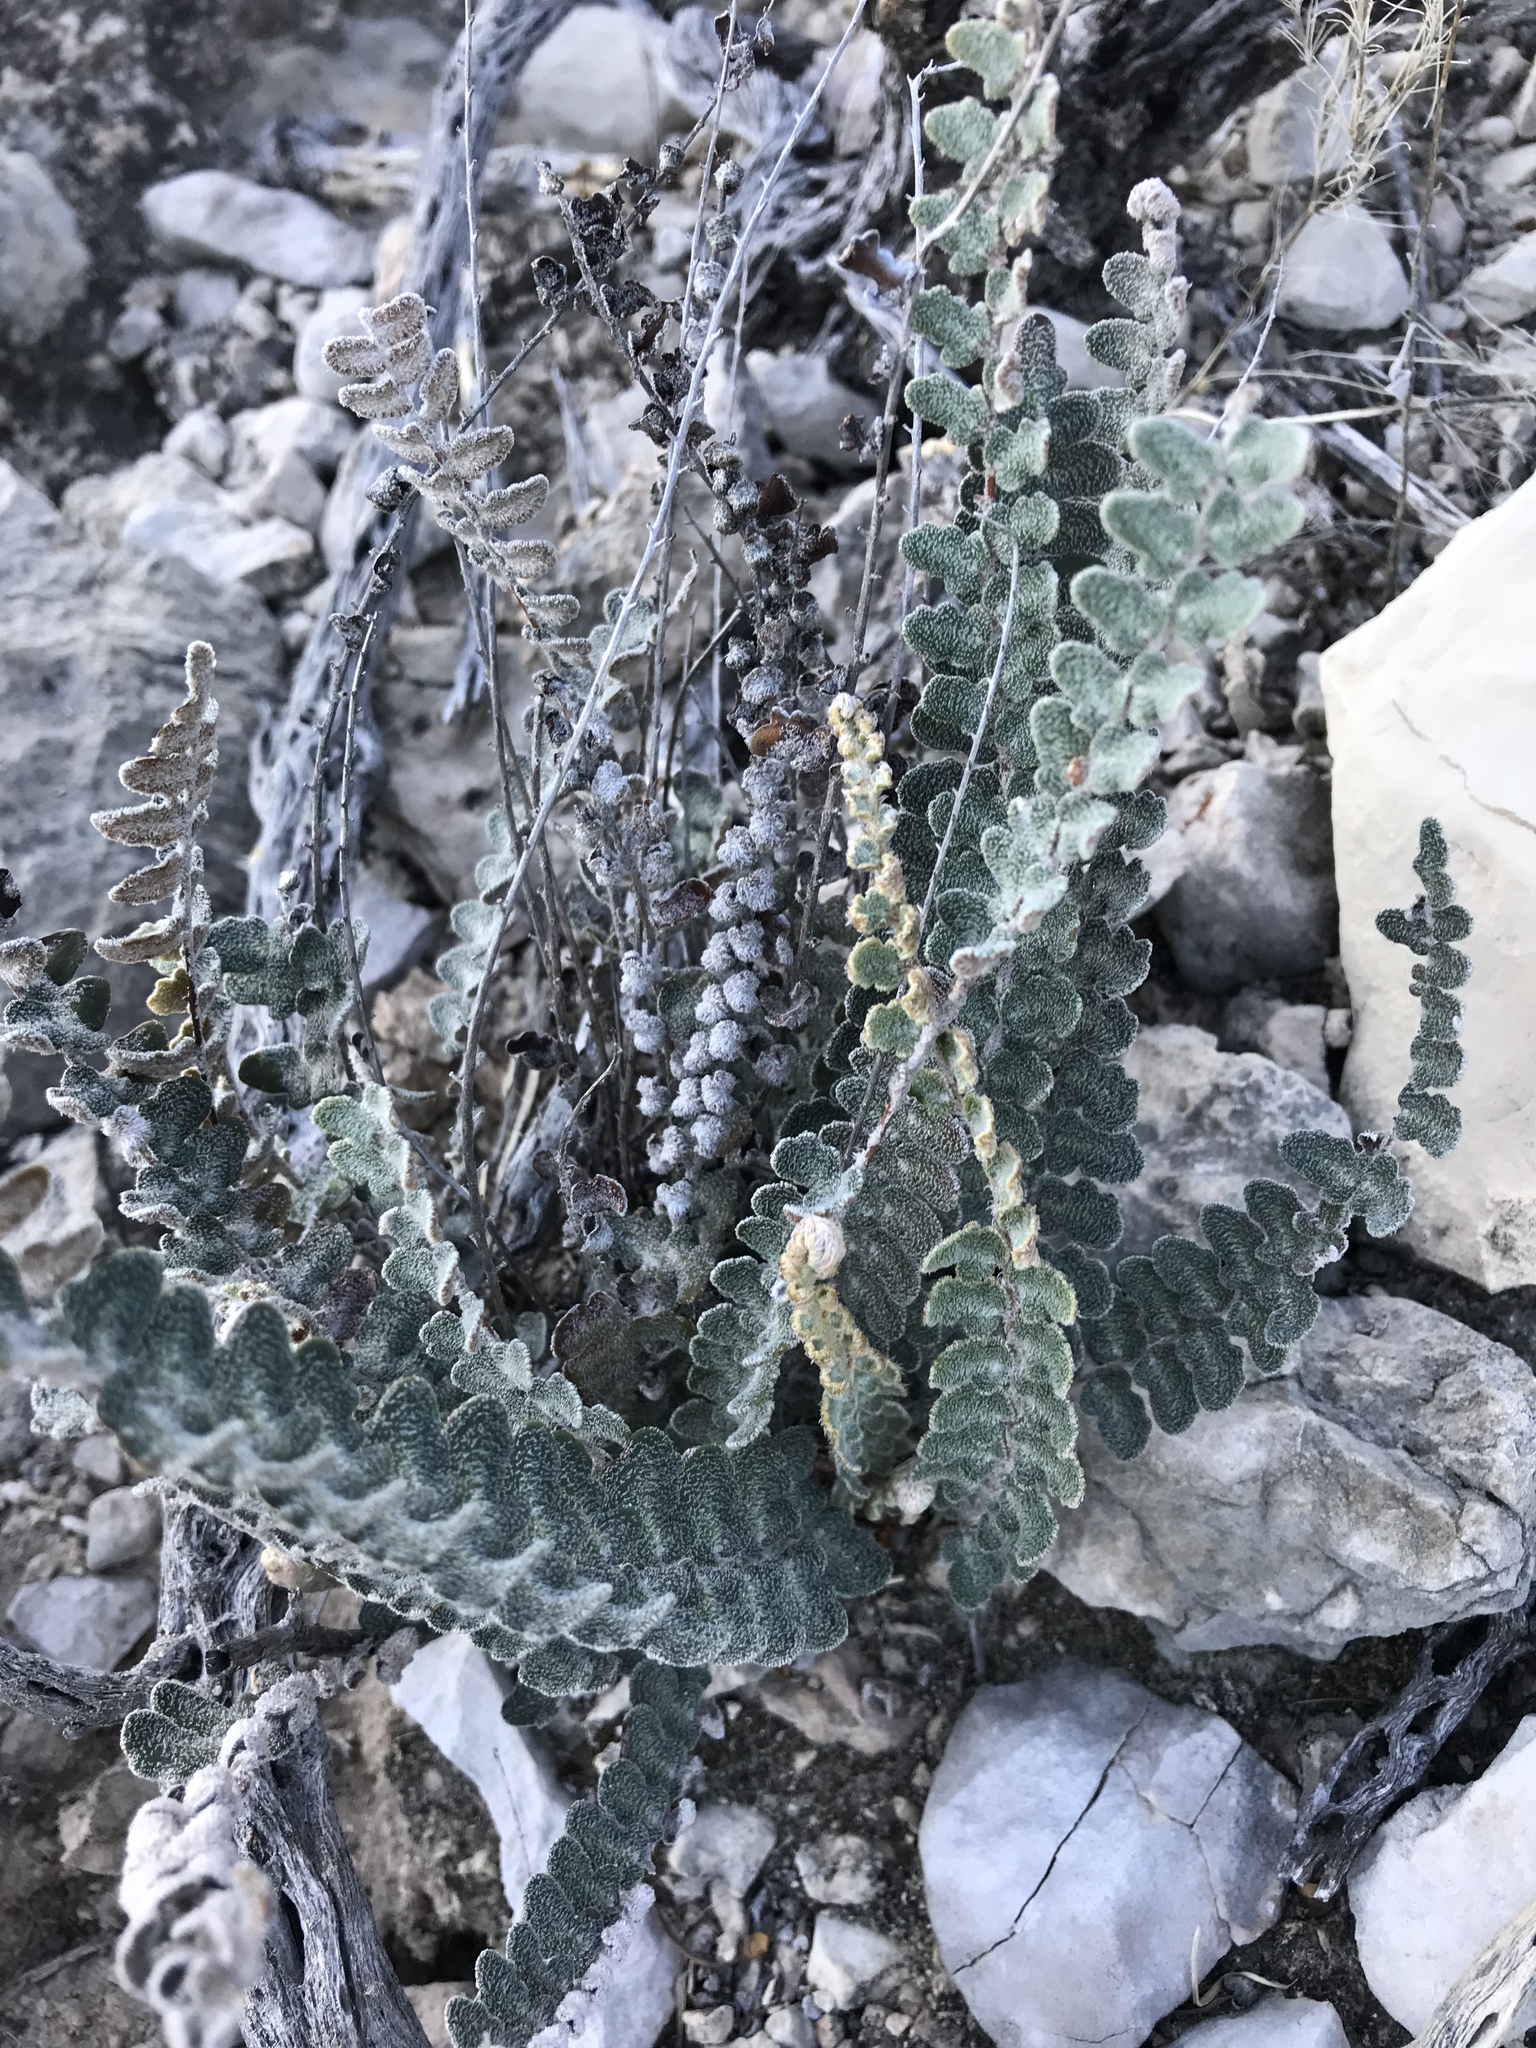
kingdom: Plantae
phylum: Tracheophyta
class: Polypodiopsida
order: Polypodiales
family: Pteridaceae
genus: Astrolepis
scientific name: Astrolepis integerrima
